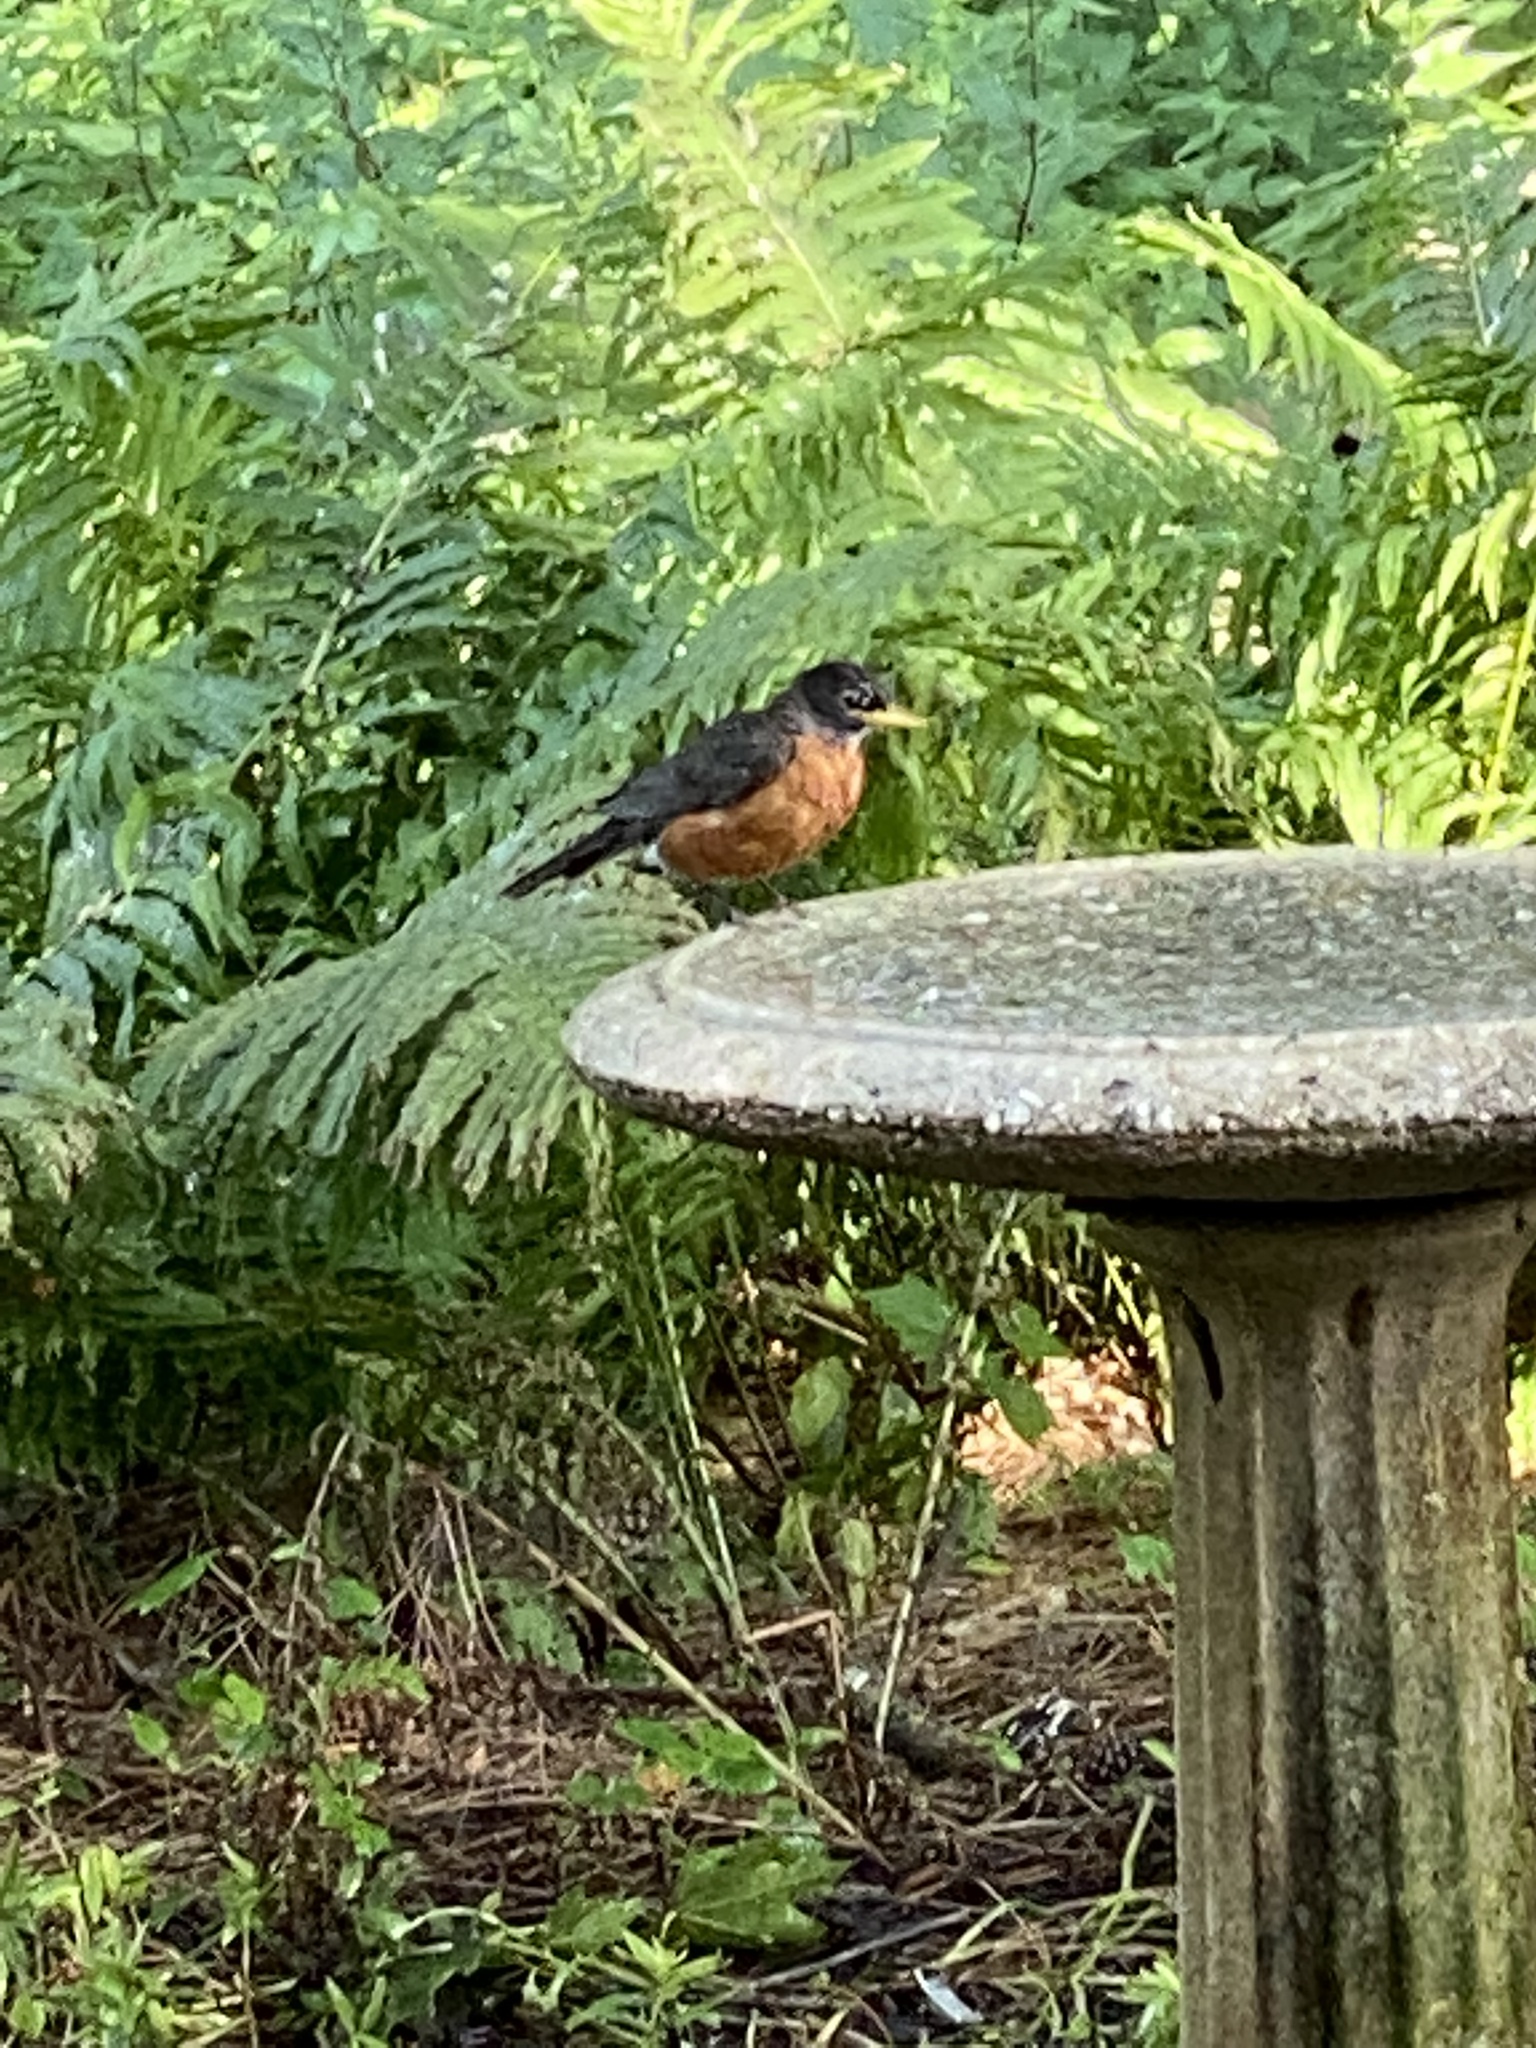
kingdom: Animalia
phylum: Chordata
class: Aves
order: Passeriformes
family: Turdidae
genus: Turdus
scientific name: Turdus migratorius
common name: American robin
